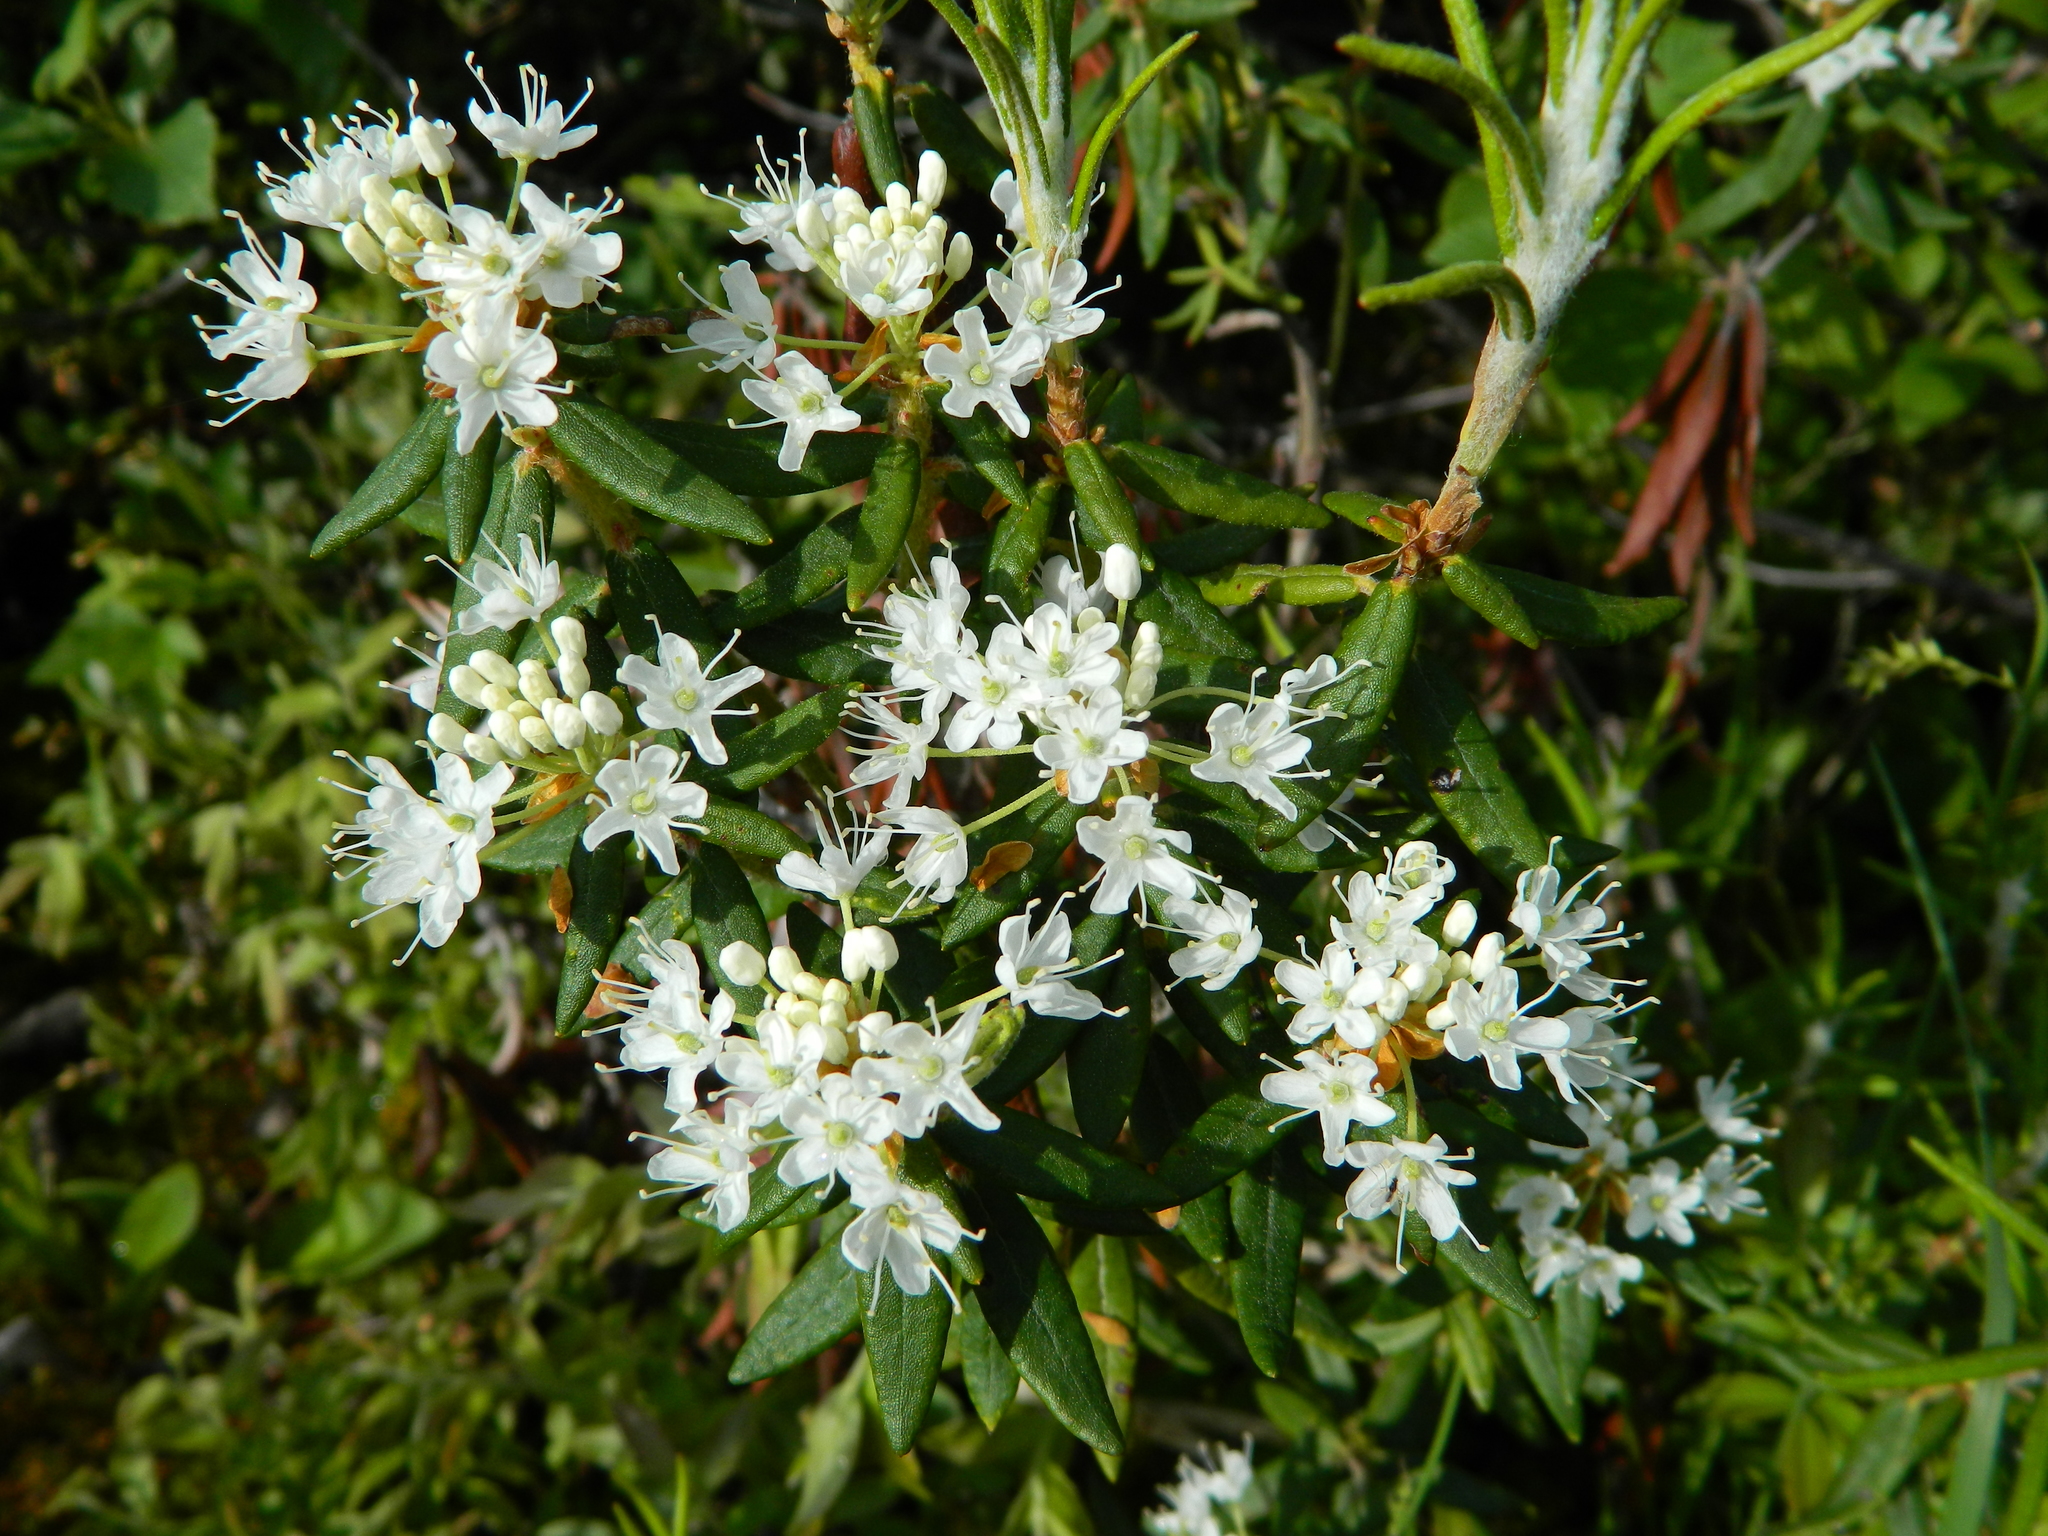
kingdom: Plantae
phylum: Tracheophyta
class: Magnoliopsida
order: Ericales
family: Ericaceae
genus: Rhododendron
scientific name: Rhododendron groenlandicum
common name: Bog labrador tea
